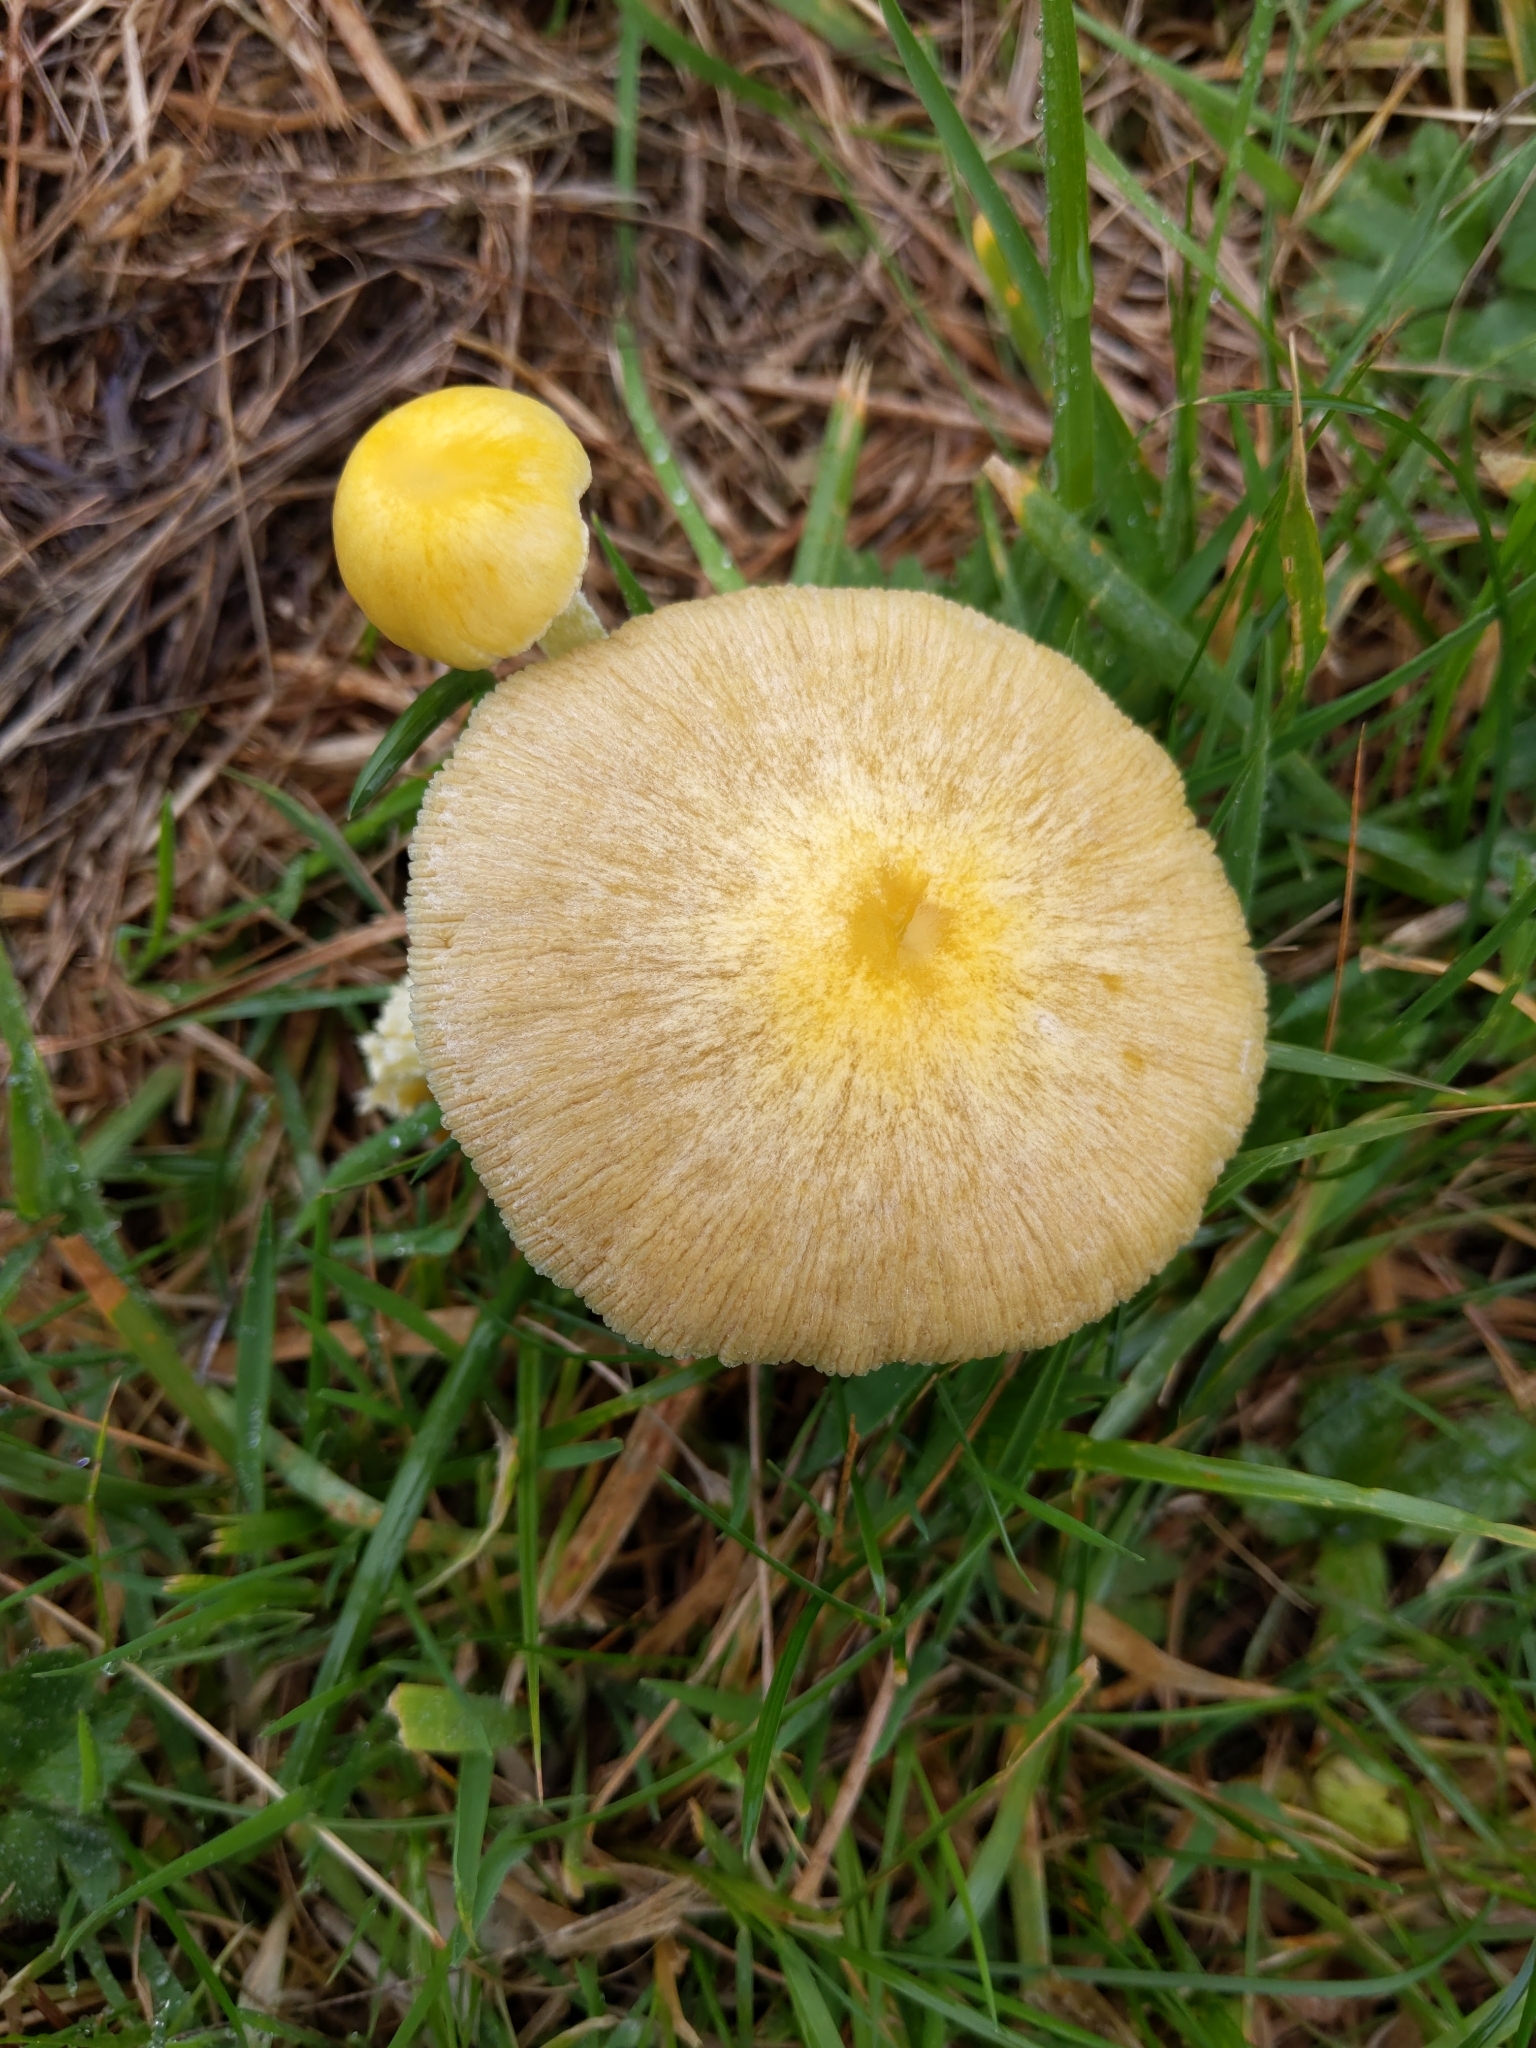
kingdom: Fungi
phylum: Basidiomycota
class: Agaricomycetes
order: Agaricales
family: Bolbitiaceae
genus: Bolbitius
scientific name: Bolbitius titubans
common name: Yellow fieldcap
